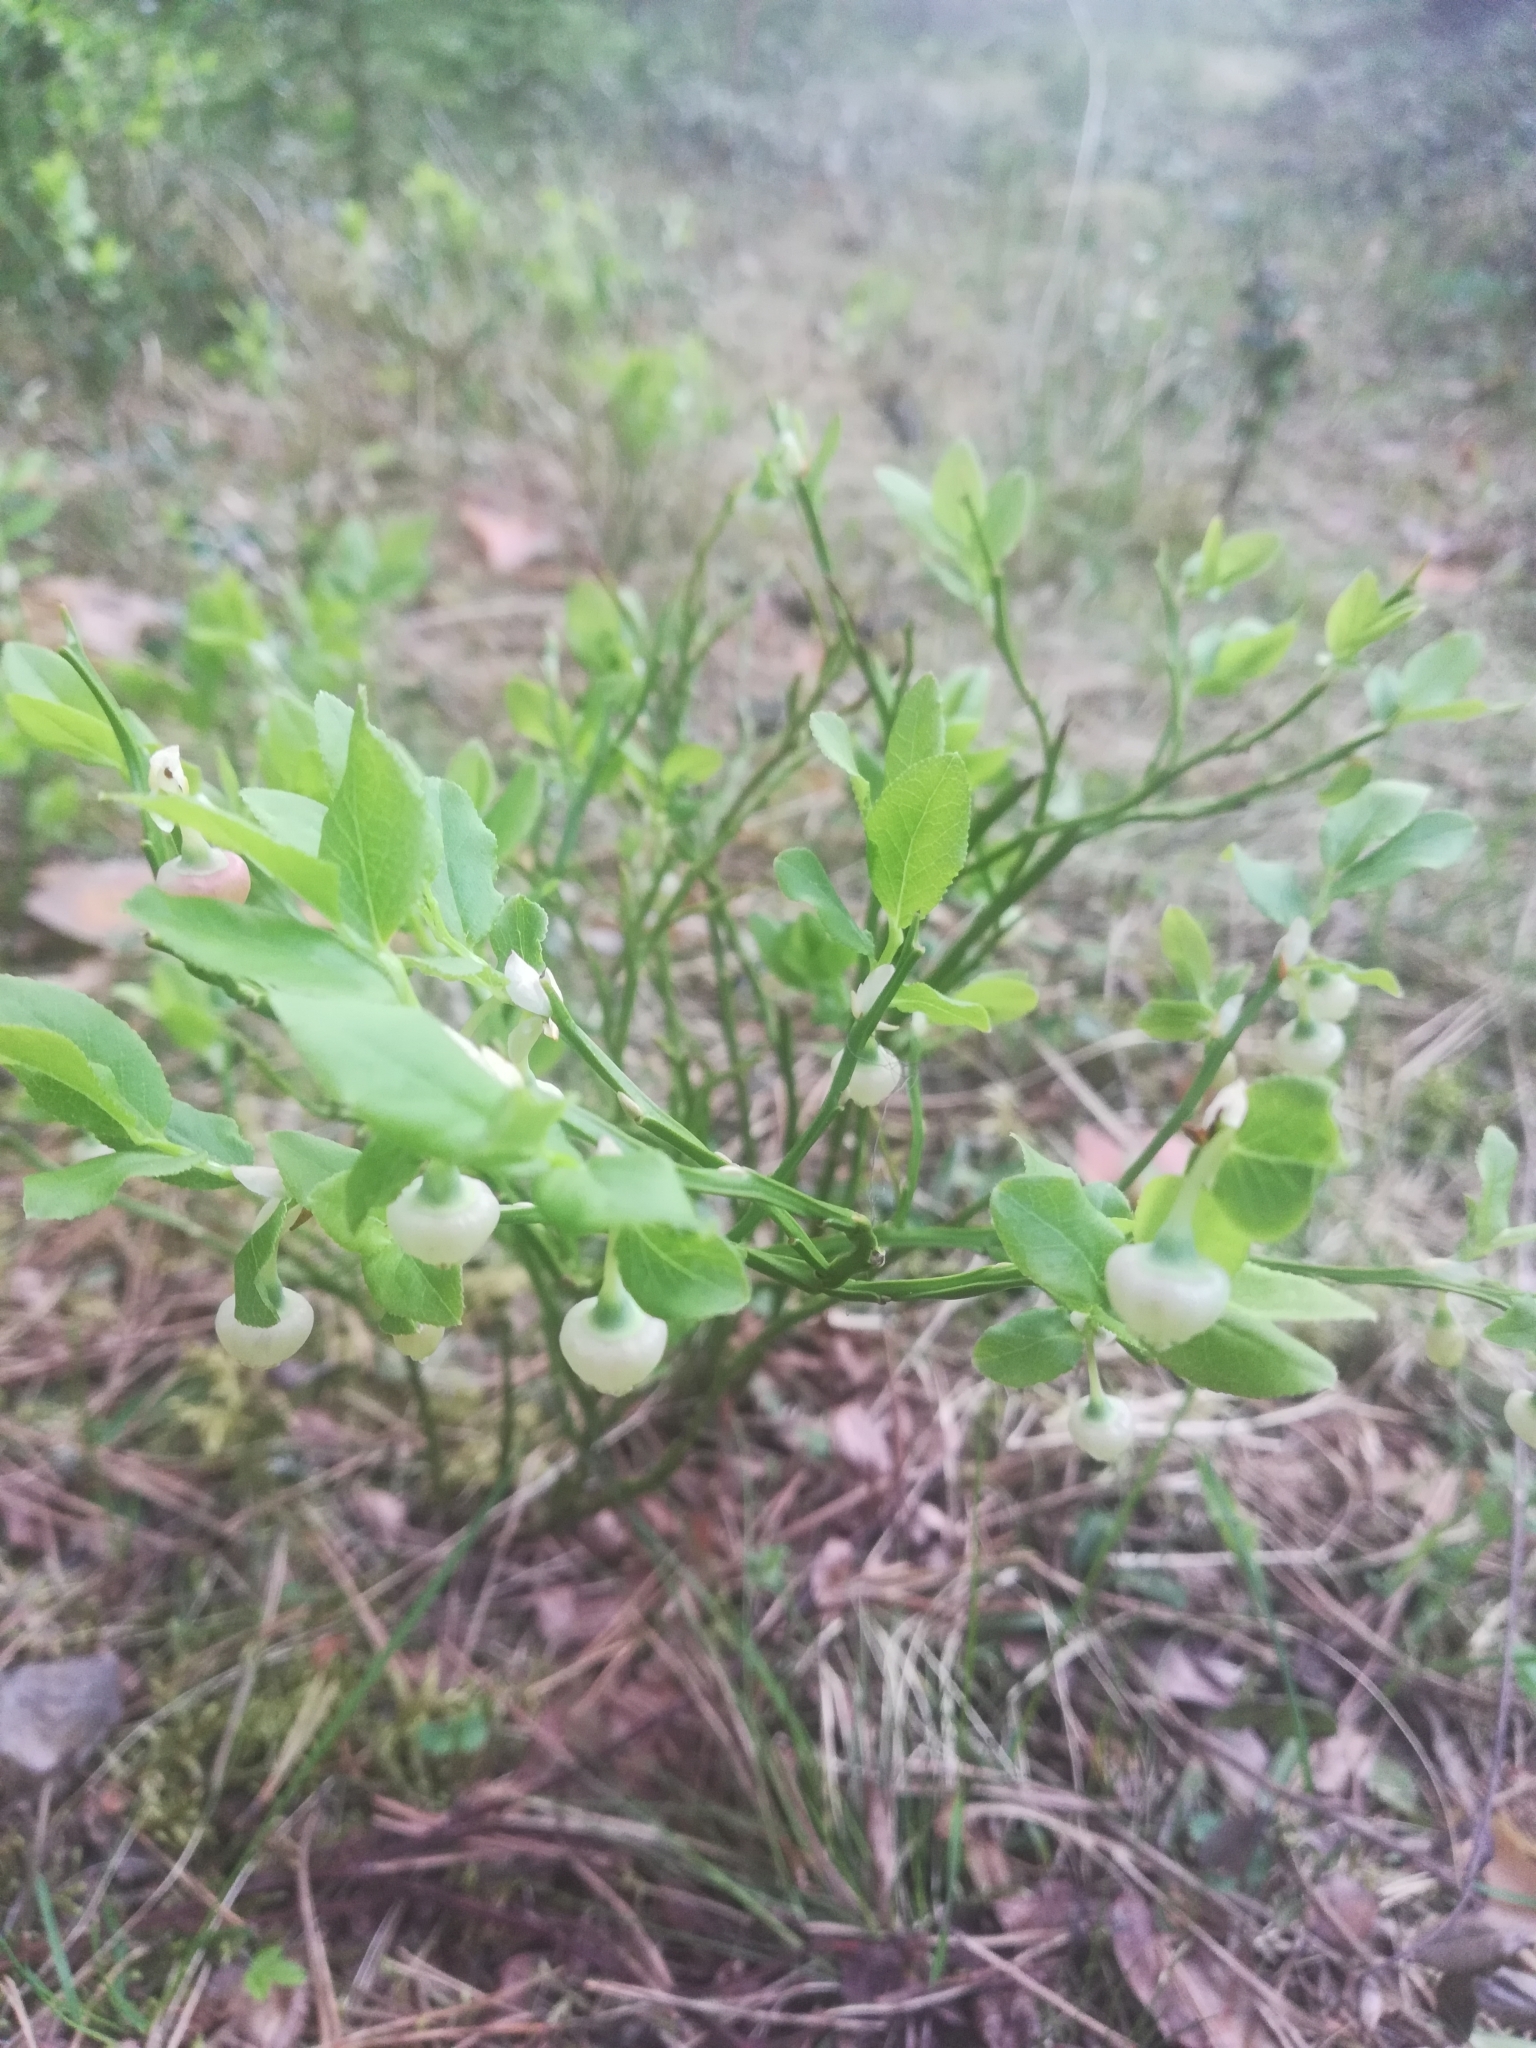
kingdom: Plantae
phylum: Tracheophyta
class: Magnoliopsida
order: Ericales
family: Ericaceae
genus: Vaccinium
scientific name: Vaccinium myrtillus
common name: Bilberry
